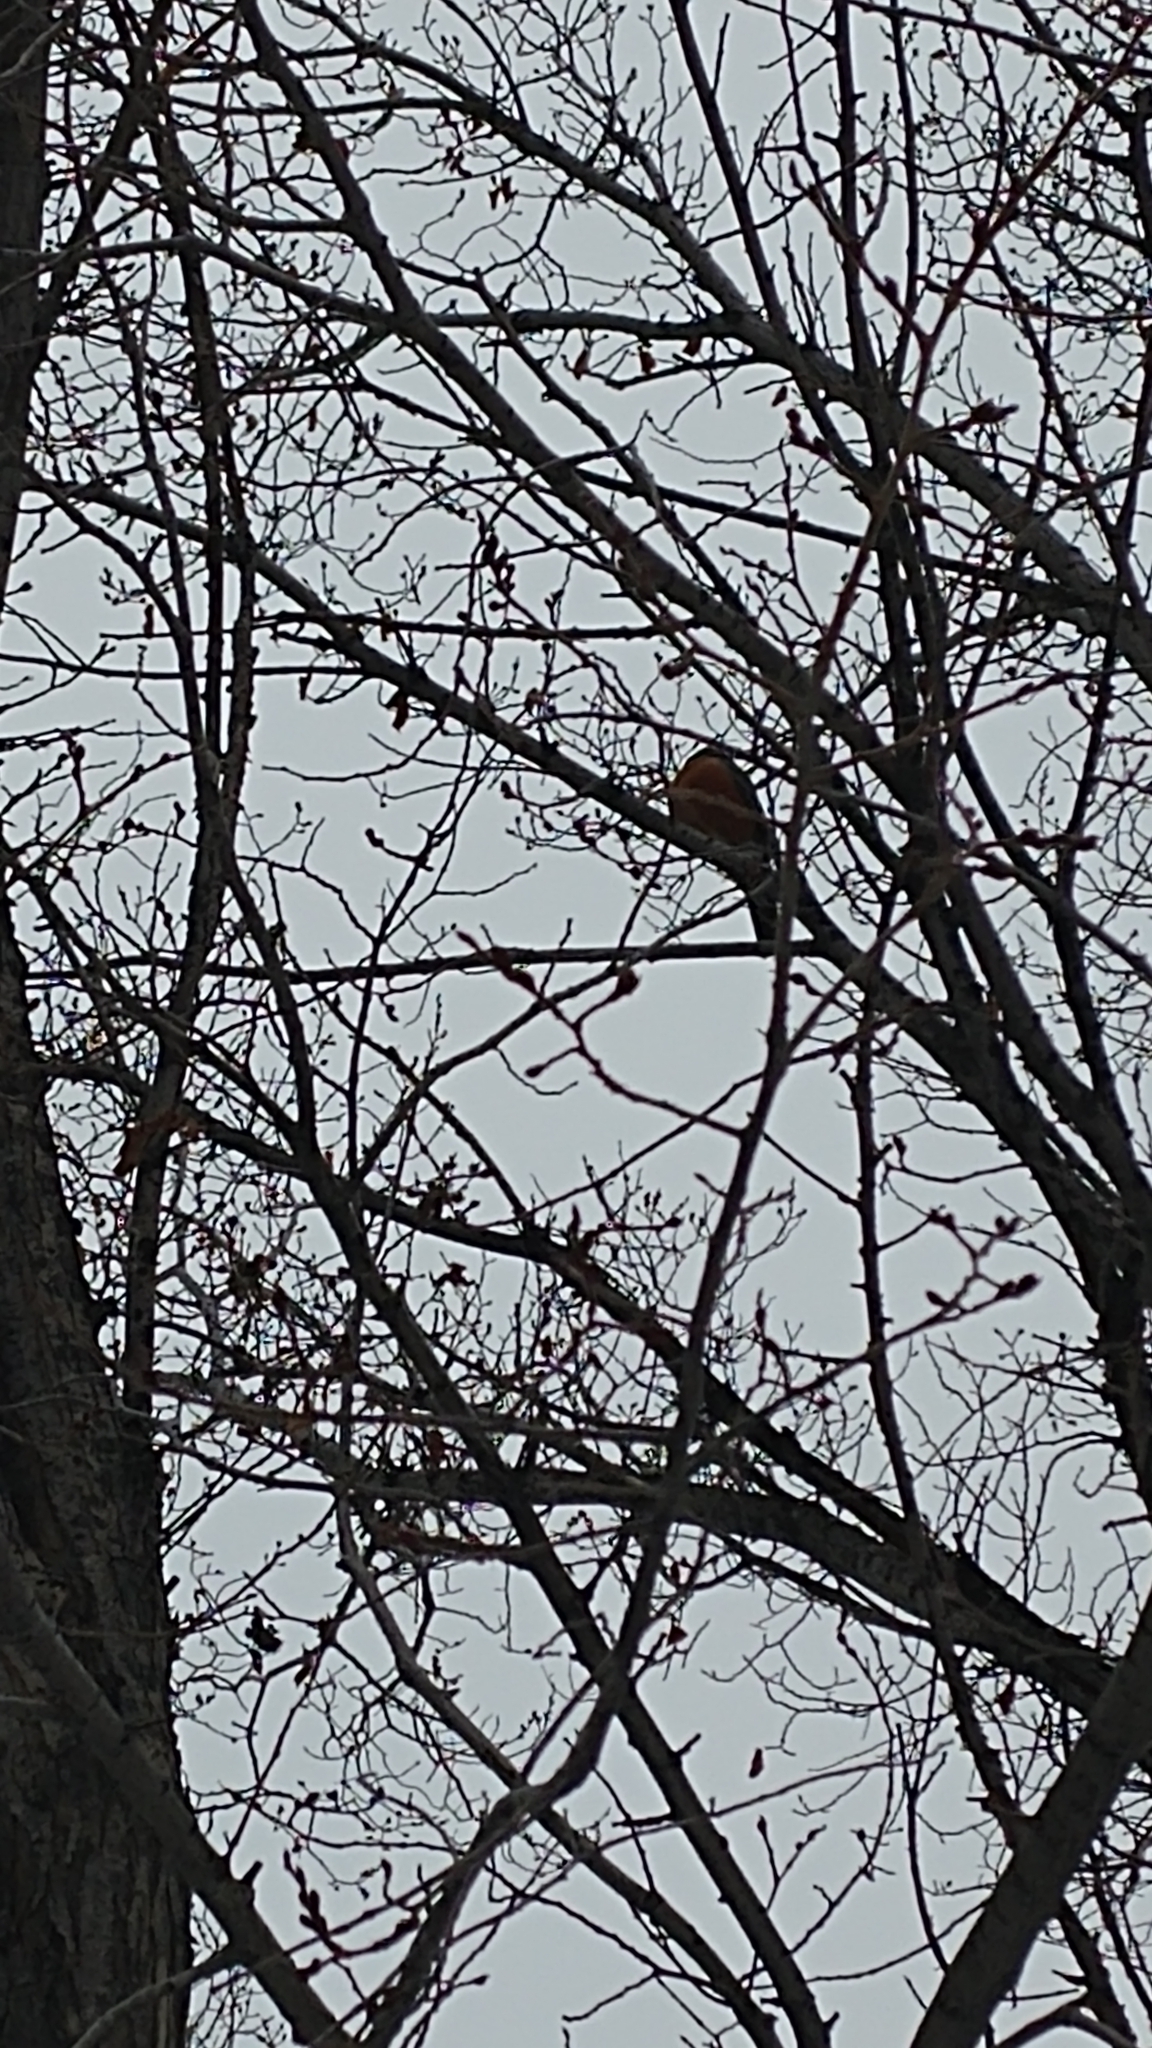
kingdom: Animalia
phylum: Chordata
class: Aves
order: Passeriformes
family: Turdidae
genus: Turdus
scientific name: Turdus migratorius
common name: American robin
